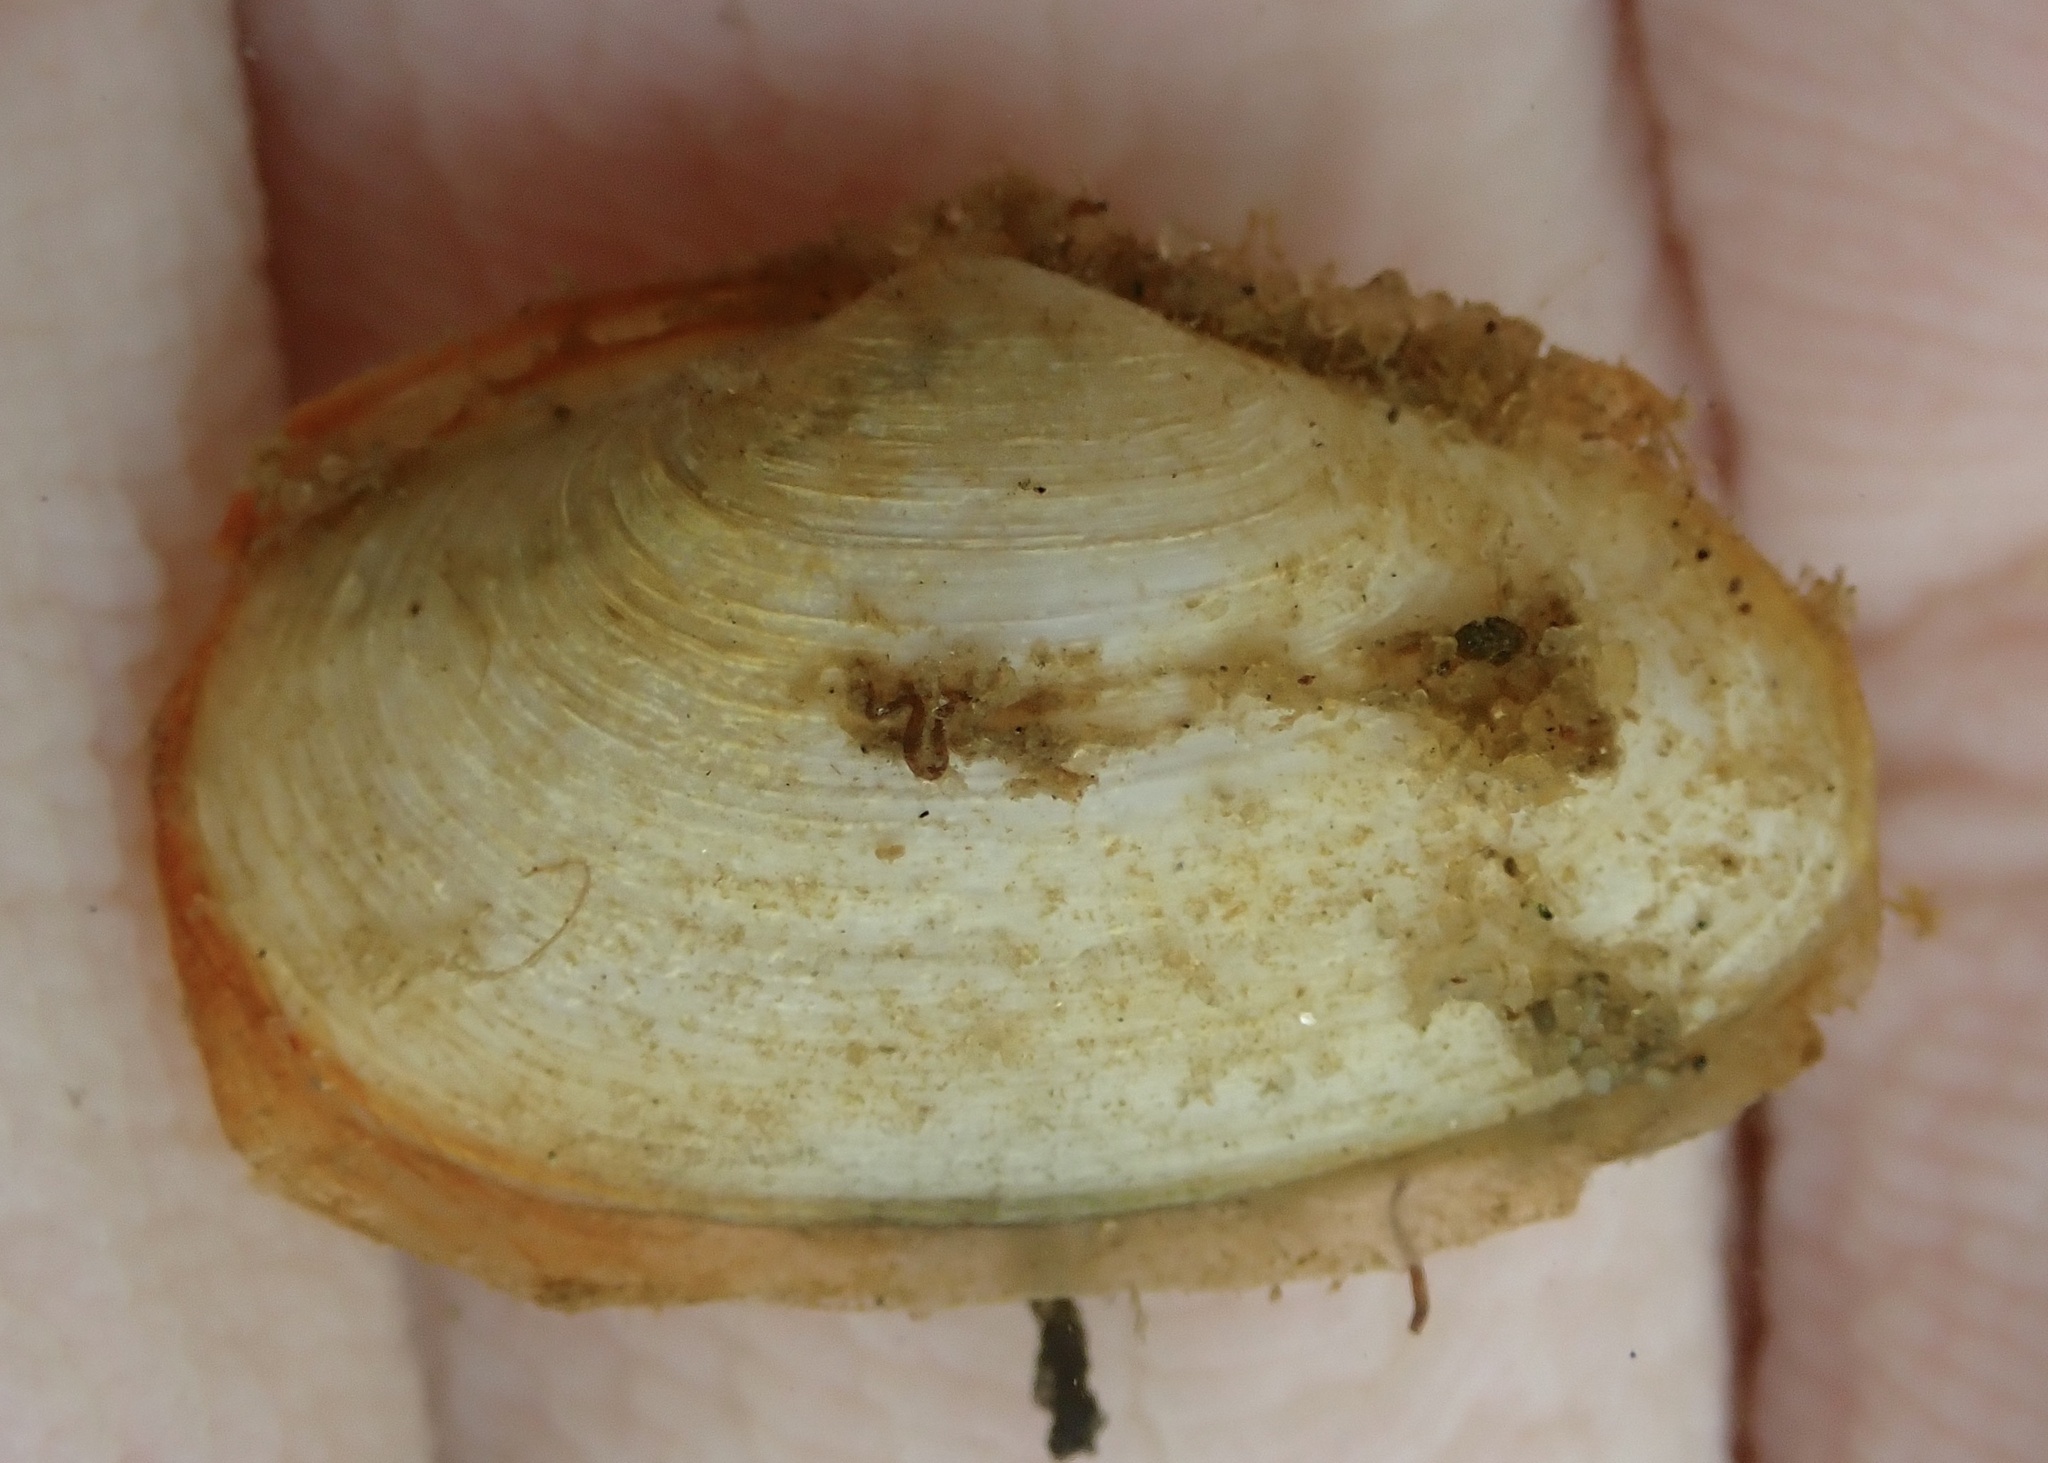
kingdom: Animalia
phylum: Mollusca
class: Bivalvia
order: Myida
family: Myidae
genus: Mya
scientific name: Mya arenaria
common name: Soft-shelled clam
